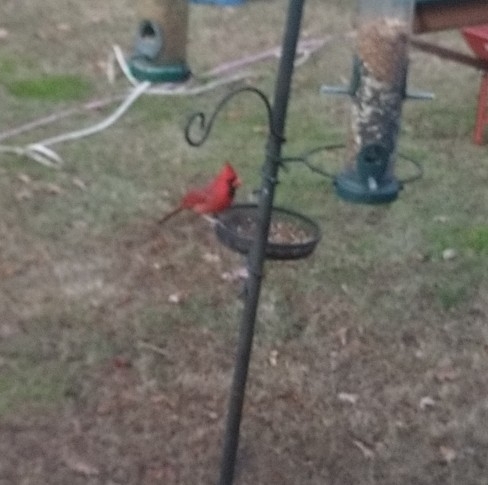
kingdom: Animalia
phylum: Chordata
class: Aves
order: Passeriformes
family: Cardinalidae
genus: Cardinalis
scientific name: Cardinalis cardinalis
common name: Northern cardinal
